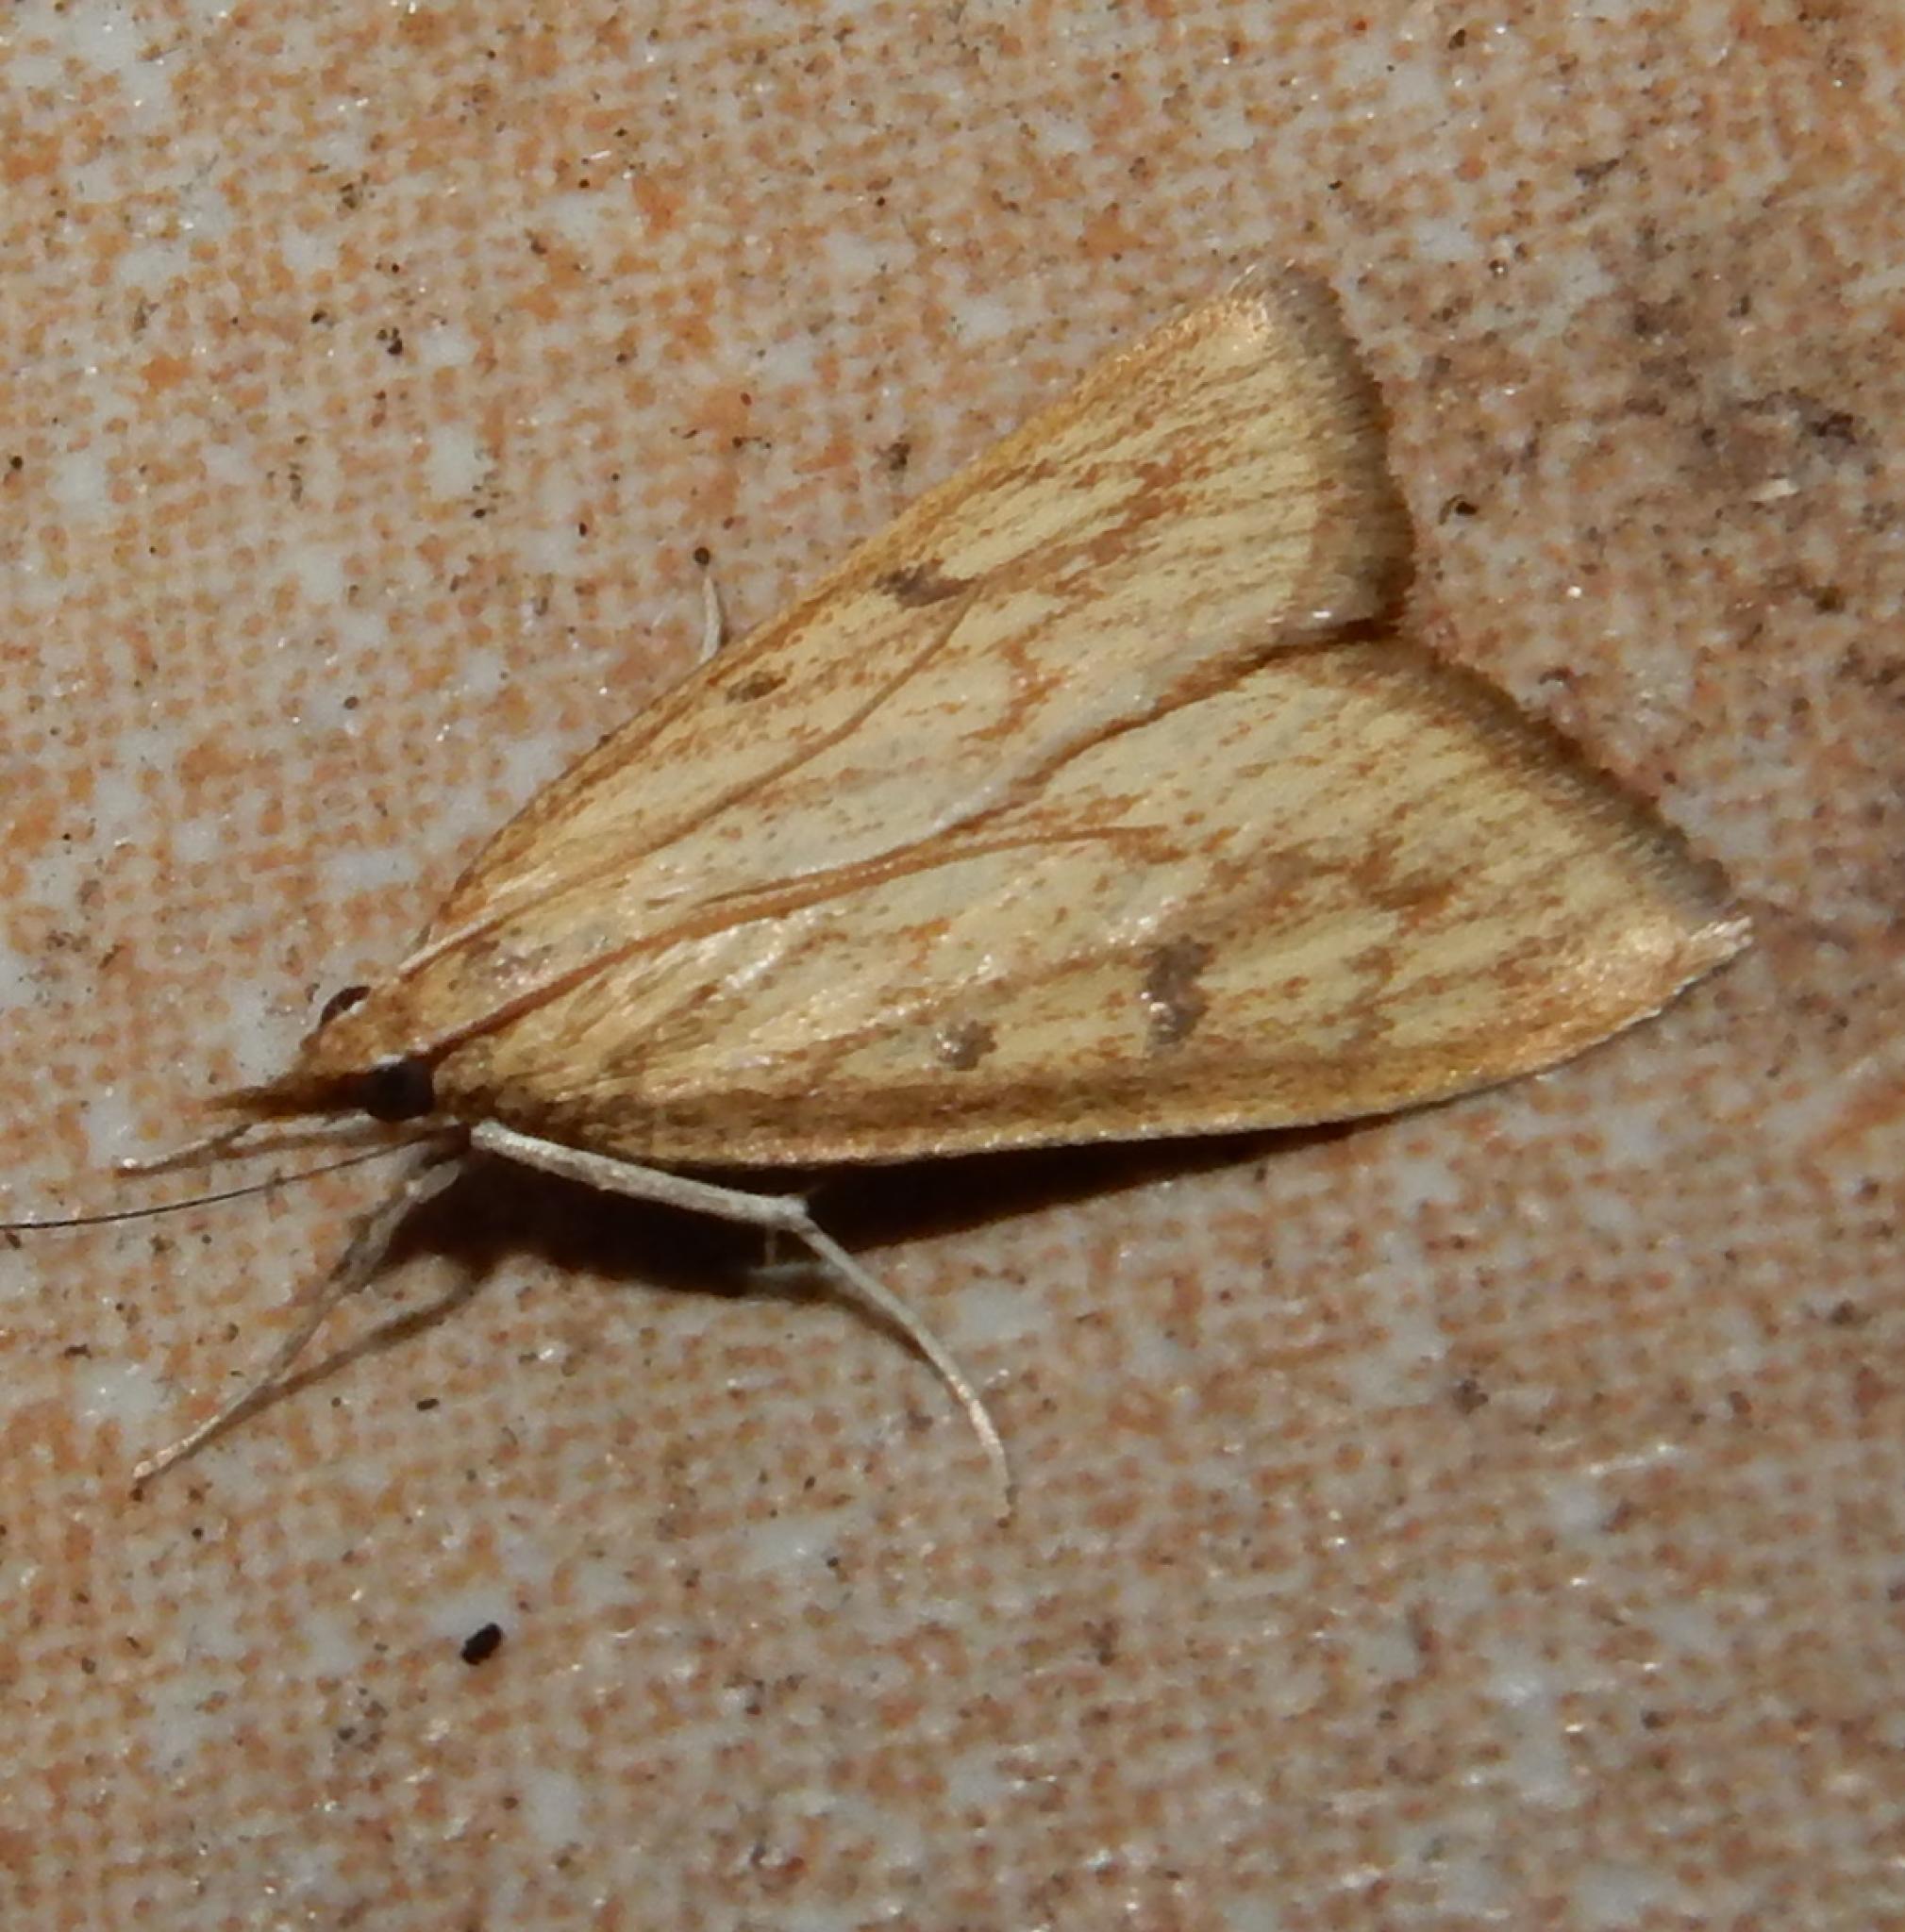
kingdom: Animalia
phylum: Arthropoda
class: Insecta
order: Lepidoptera
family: Crambidae
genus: Udea
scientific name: Udea infuscalis
